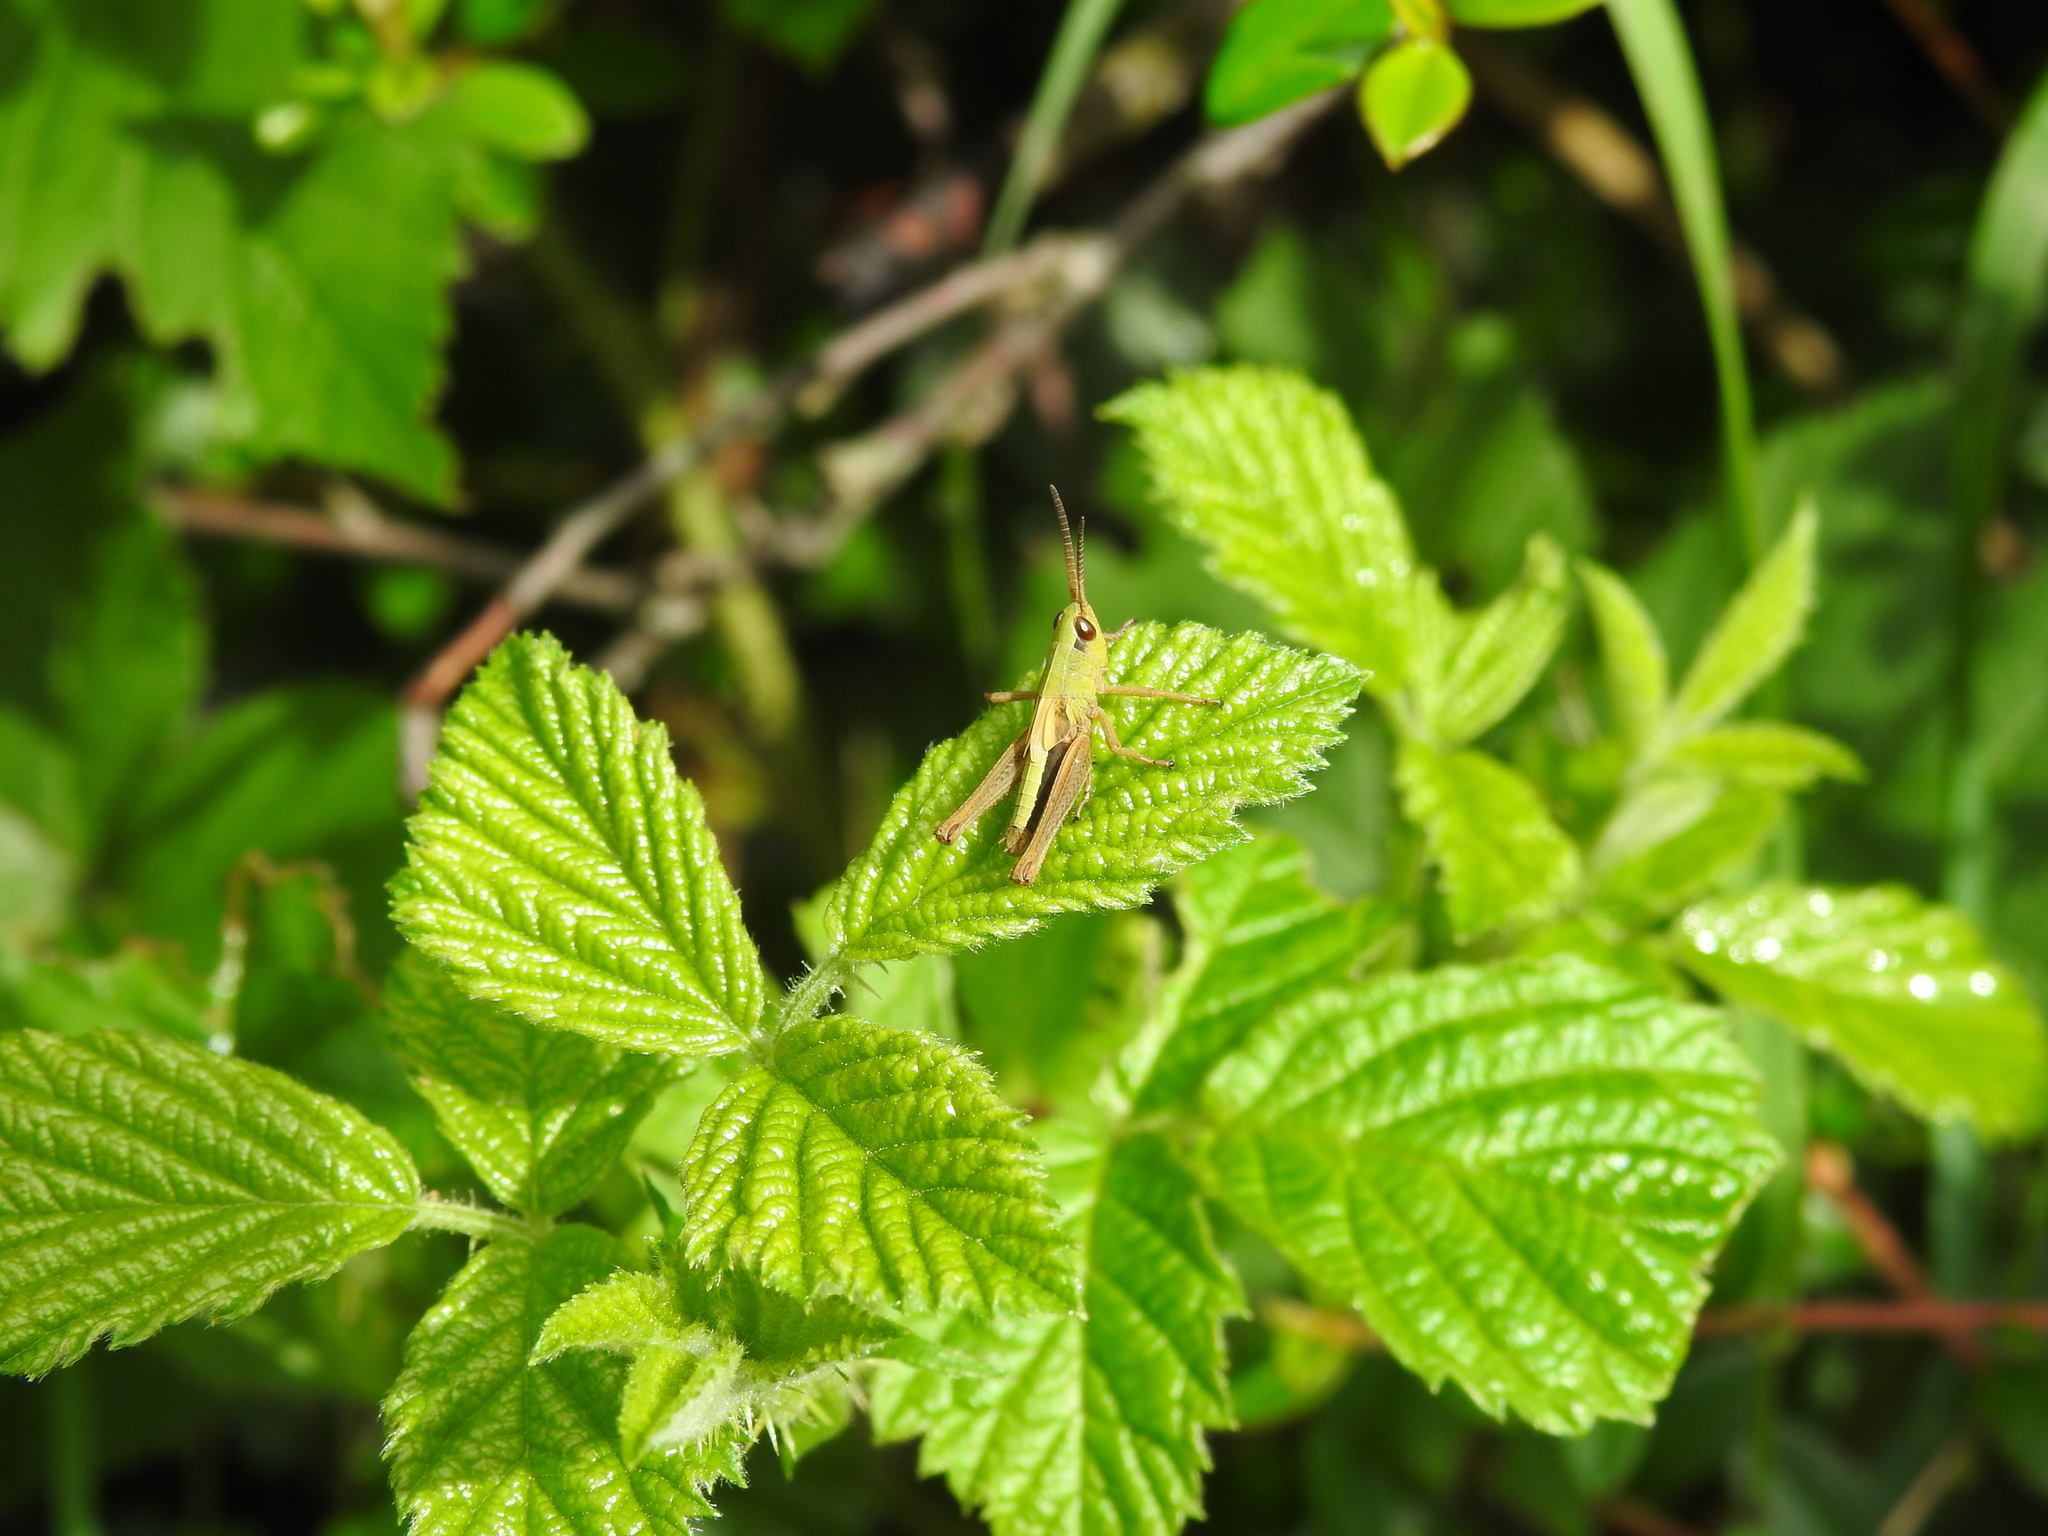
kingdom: Animalia
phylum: Arthropoda
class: Insecta
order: Orthoptera
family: Acrididae
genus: Pseudochorthippus
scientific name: Pseudochorthippus parallelus
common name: Meadow grasshopper
